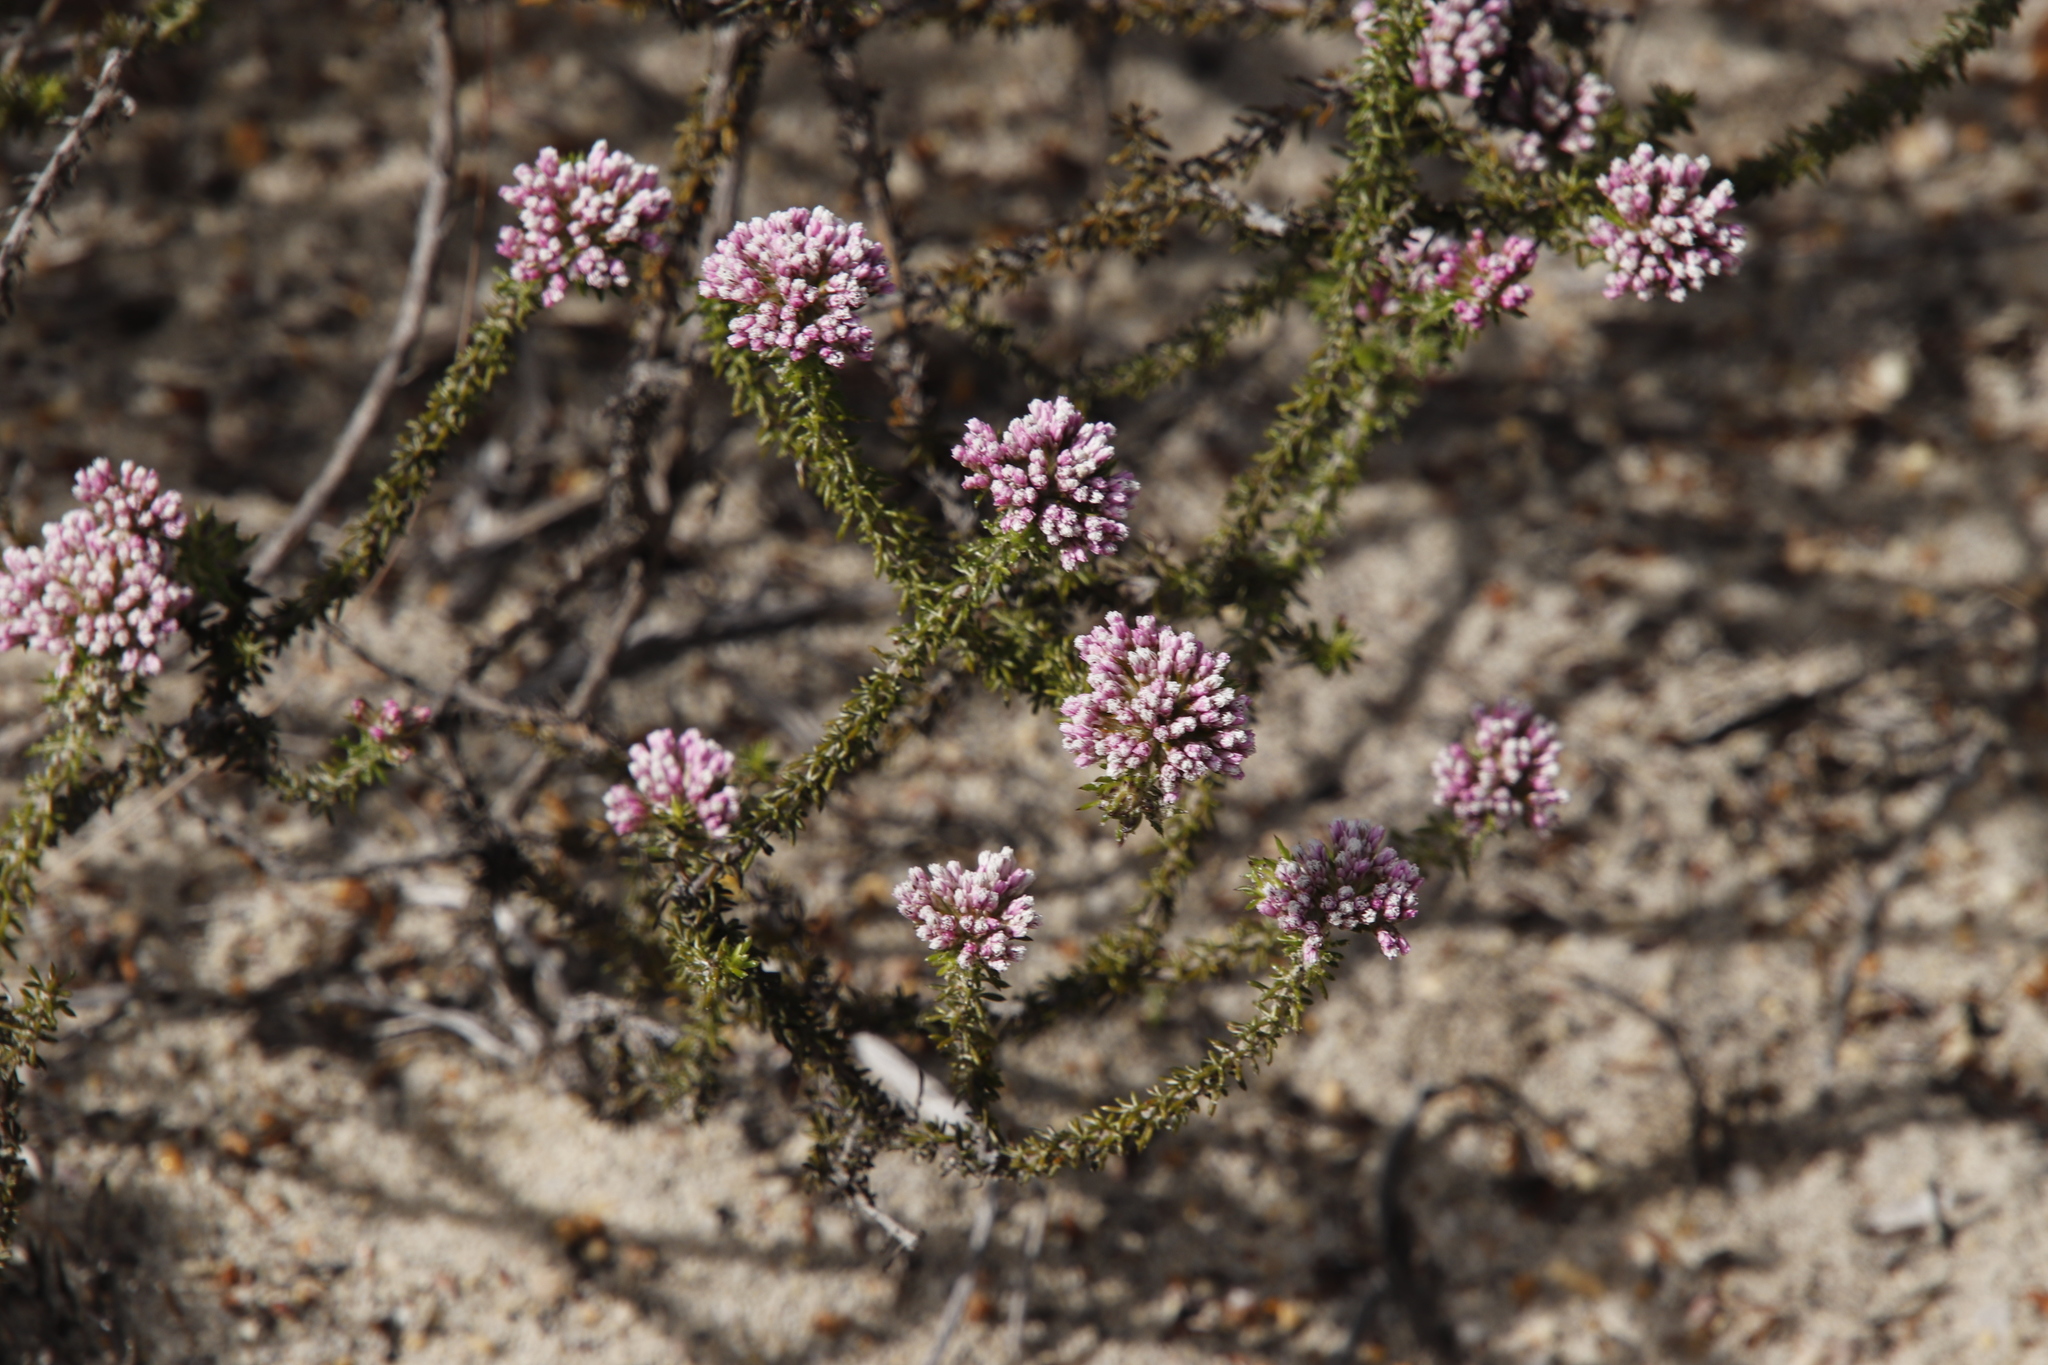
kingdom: Plantae
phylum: Tracheophyta
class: Magnoliopsida
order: Asterales
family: Asteraceae
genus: Metalasia
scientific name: Metalasia erubescens
